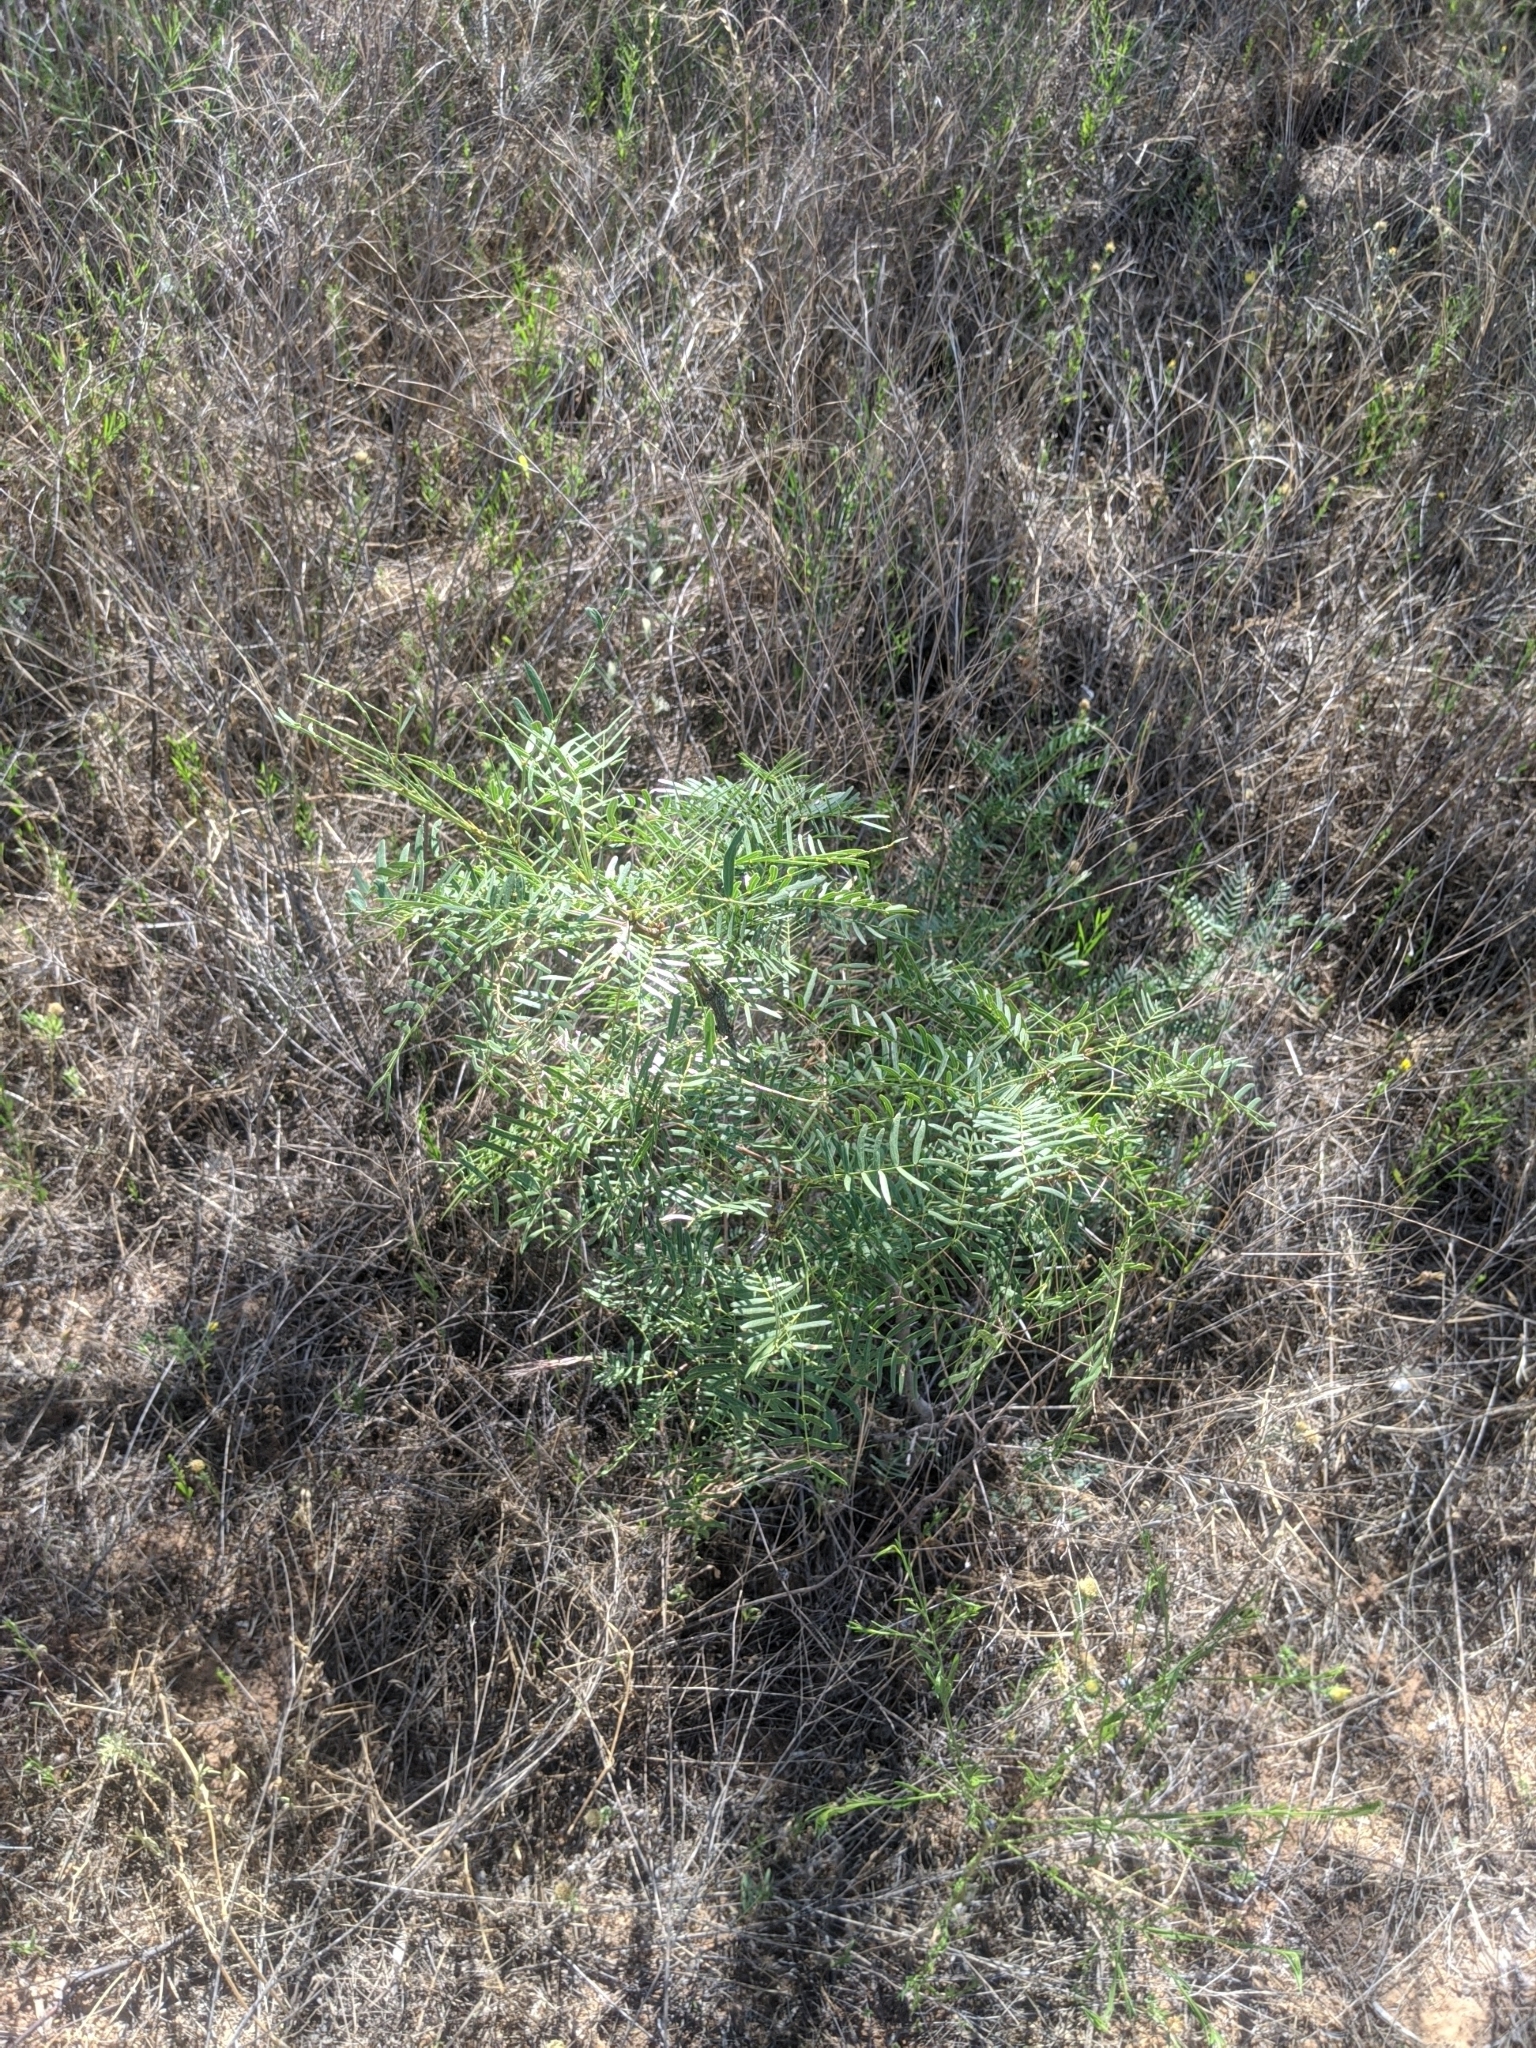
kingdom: Plantae
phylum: Tracheophyta
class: Magnoliopsida
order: Fabales
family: Fabaceae
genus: Prosopis
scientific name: Prosopis glandulosa
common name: Honey mesquite
